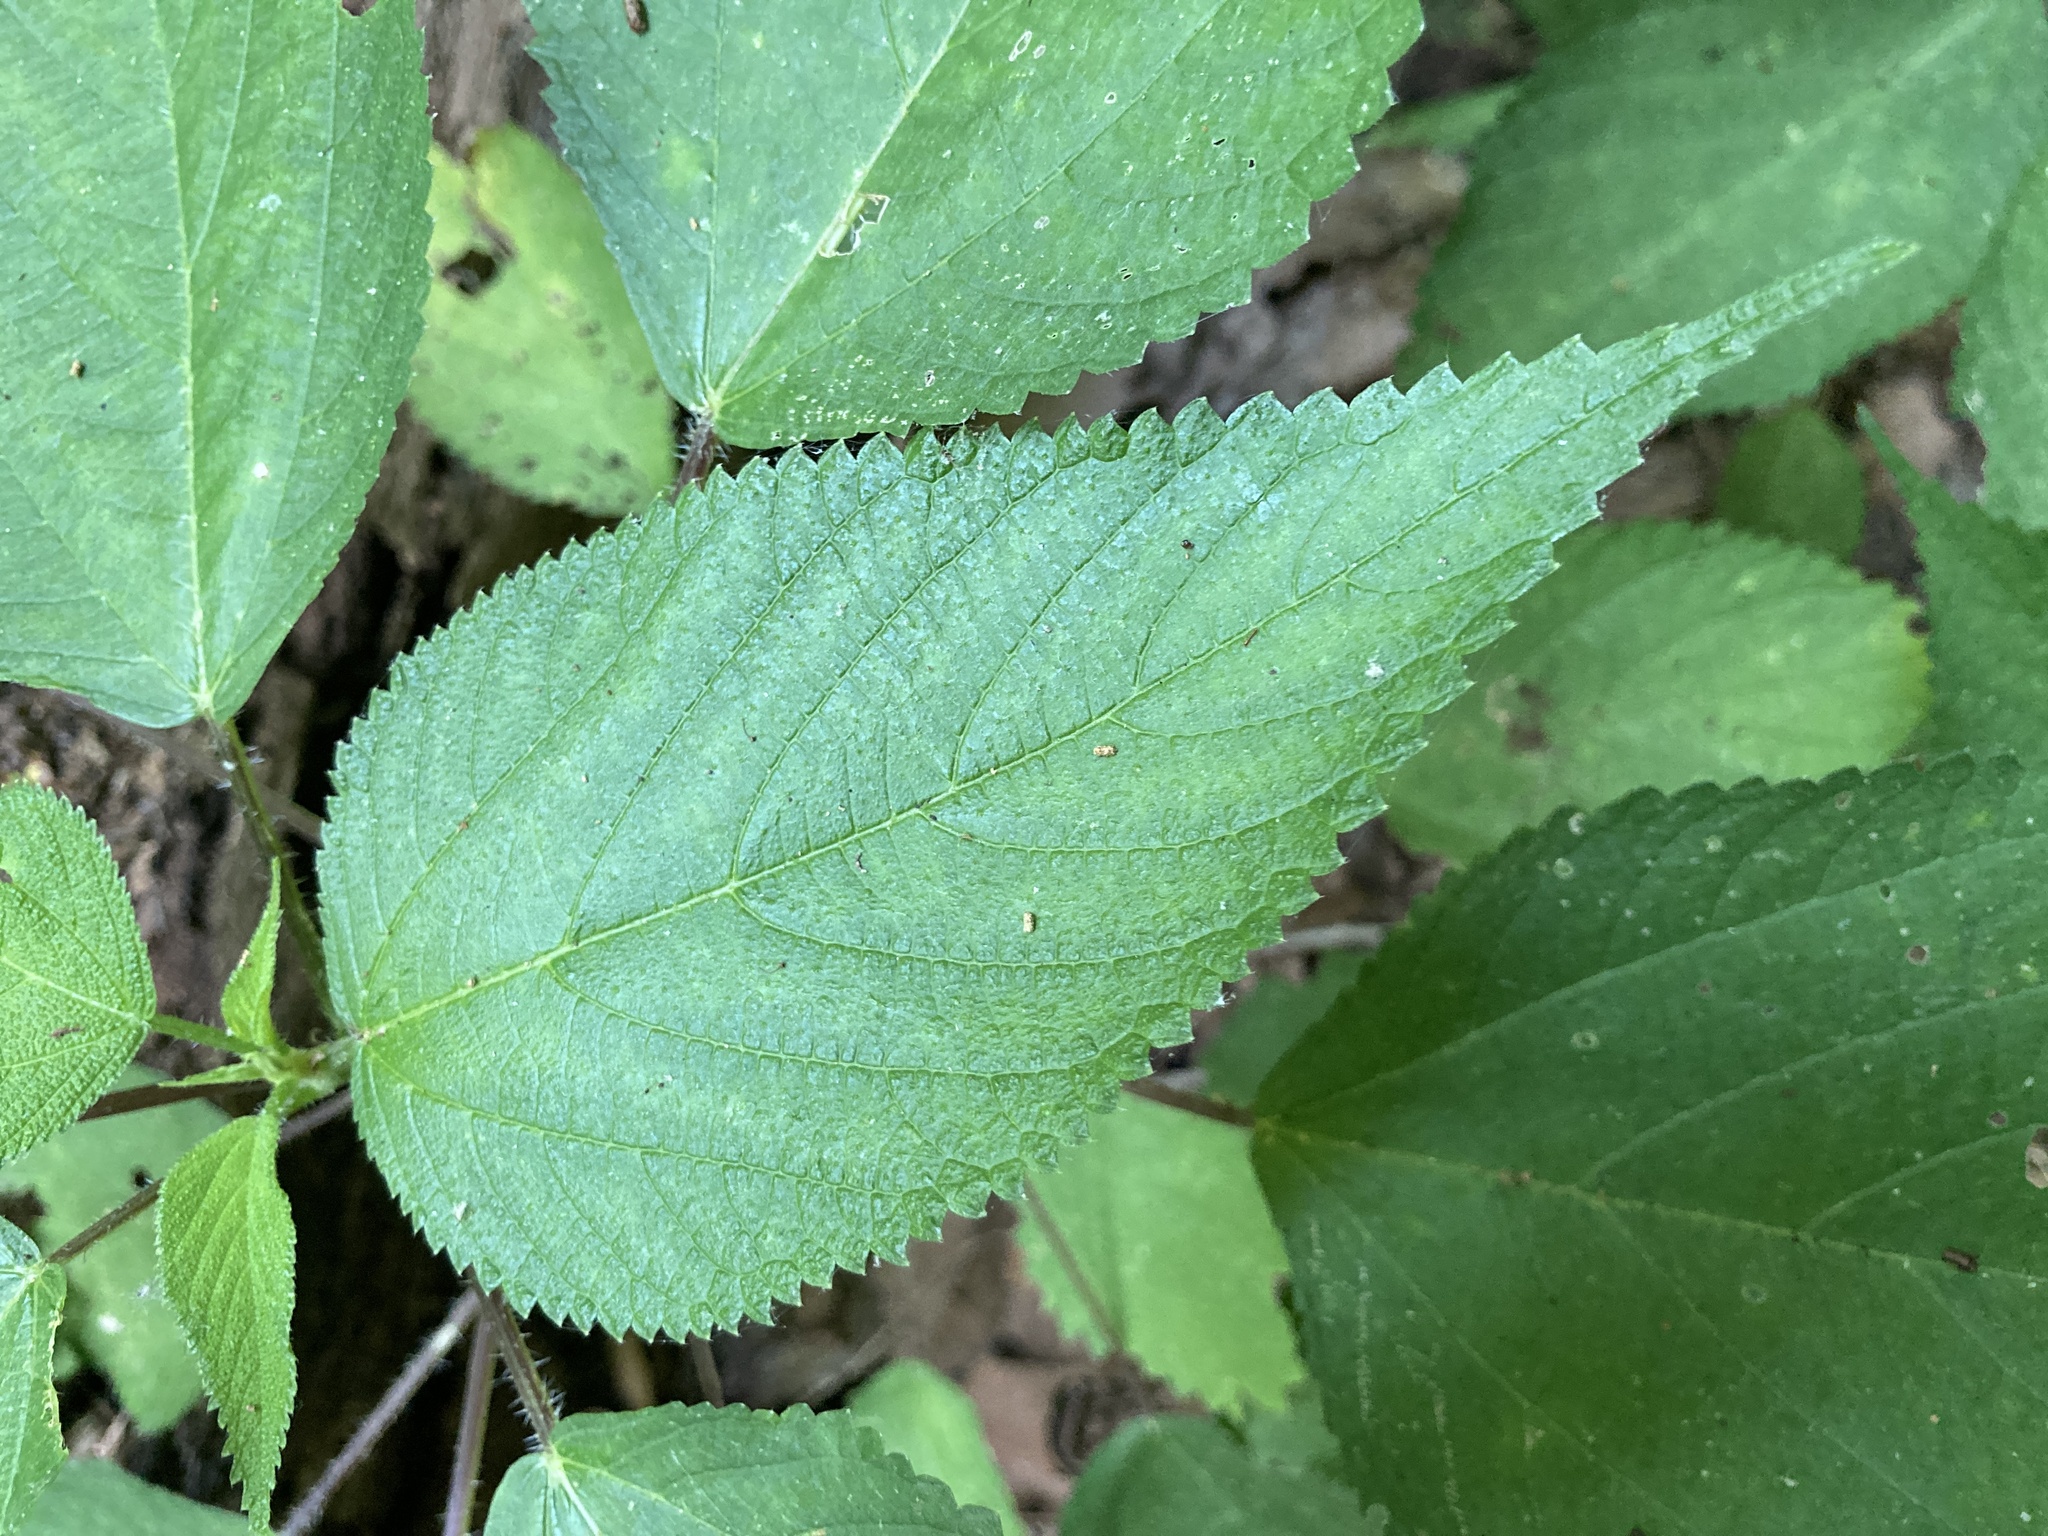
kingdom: Plantae
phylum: Tracheophyta
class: Magnoliopsida
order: Rosales
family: Urticaceae
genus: Laportea
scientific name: Laportea canadensis
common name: Canada nettle
